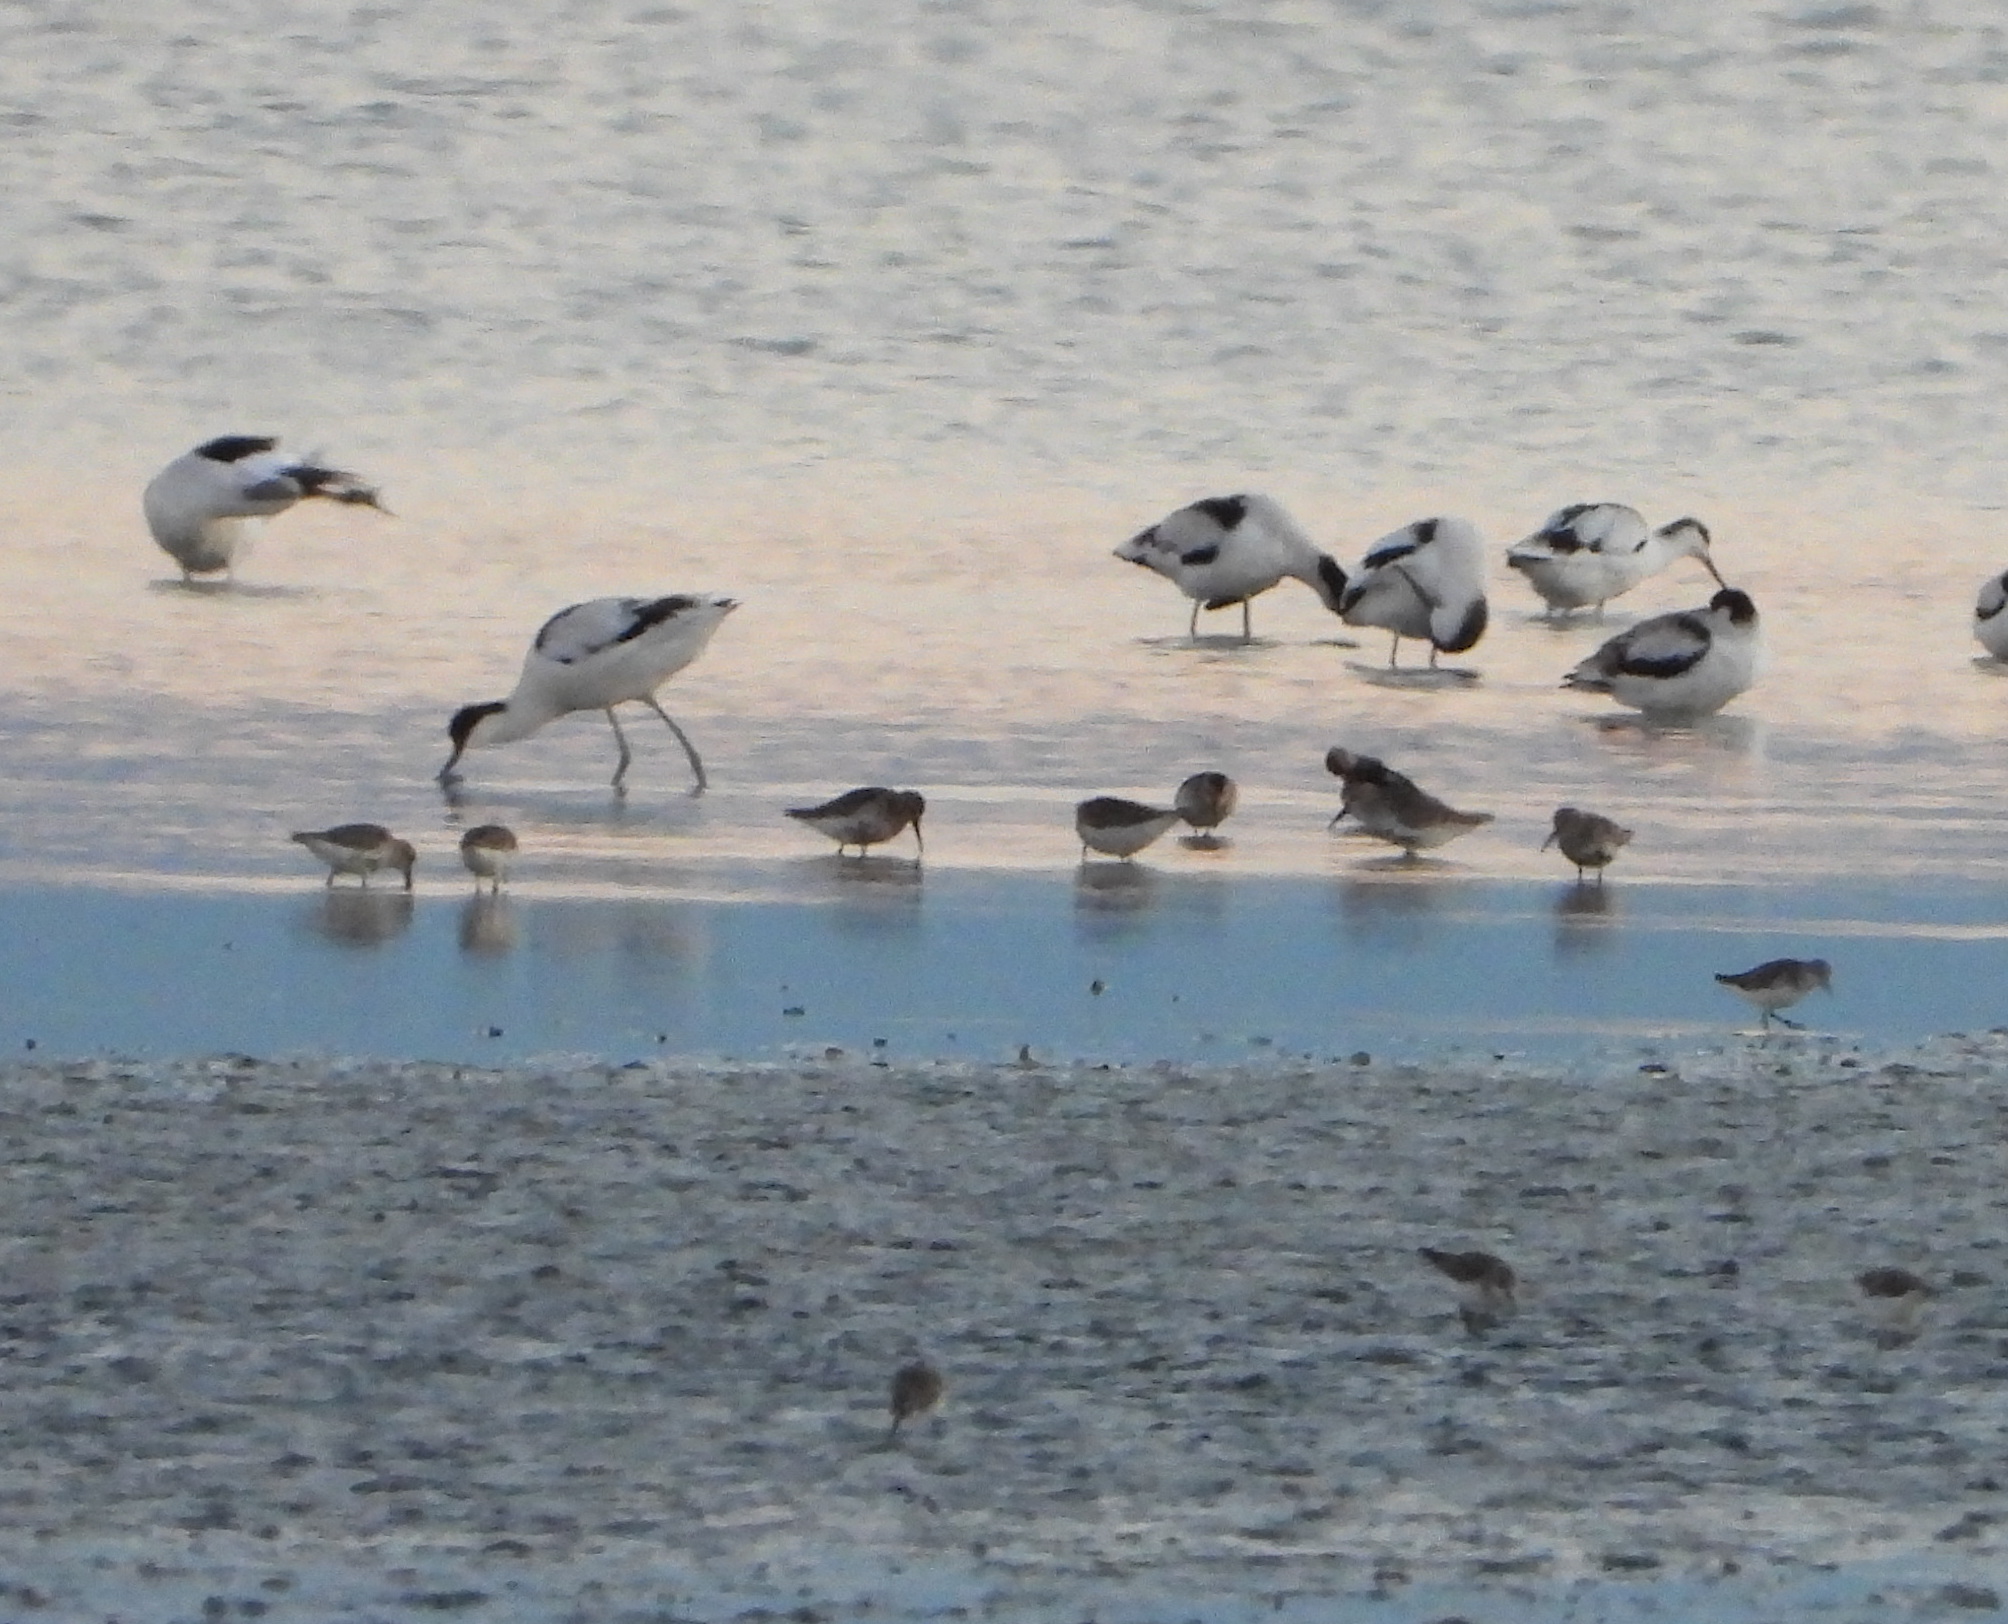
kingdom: Animalia
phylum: Chordata
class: Aves
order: Charadriiformes
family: Recurvirostridae
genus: Recurvirostra
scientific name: Recurvirostra avosetta
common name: Pied avocet
